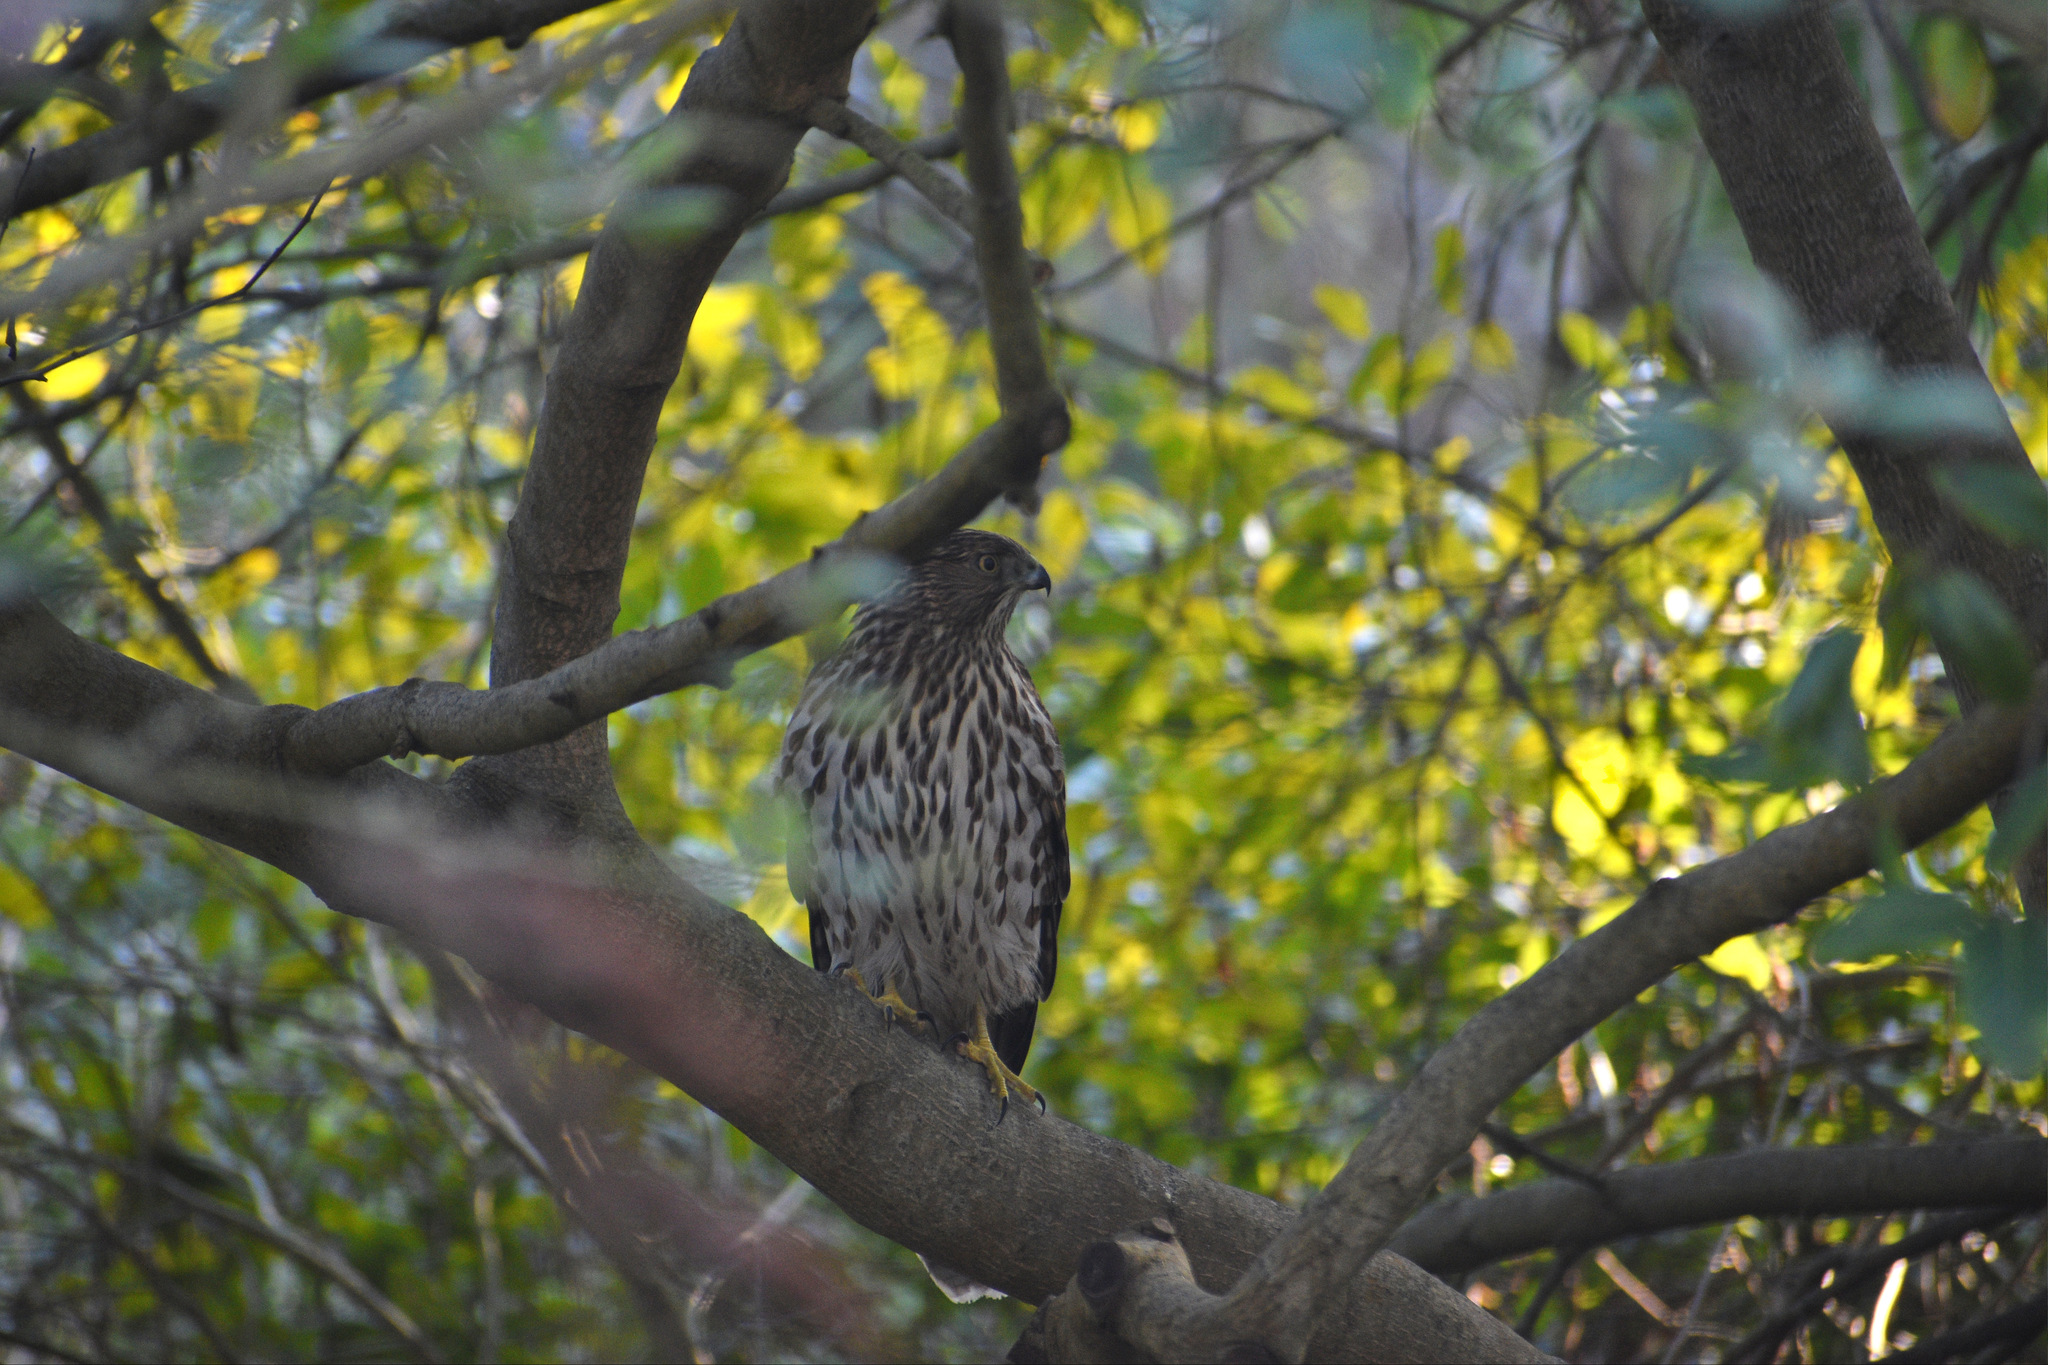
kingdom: Animalia
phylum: Chordata
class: Aves
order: Accipitriformes
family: Accipitridae
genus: Accipiter
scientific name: Accipiter cooperii
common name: Cooper's hawk
